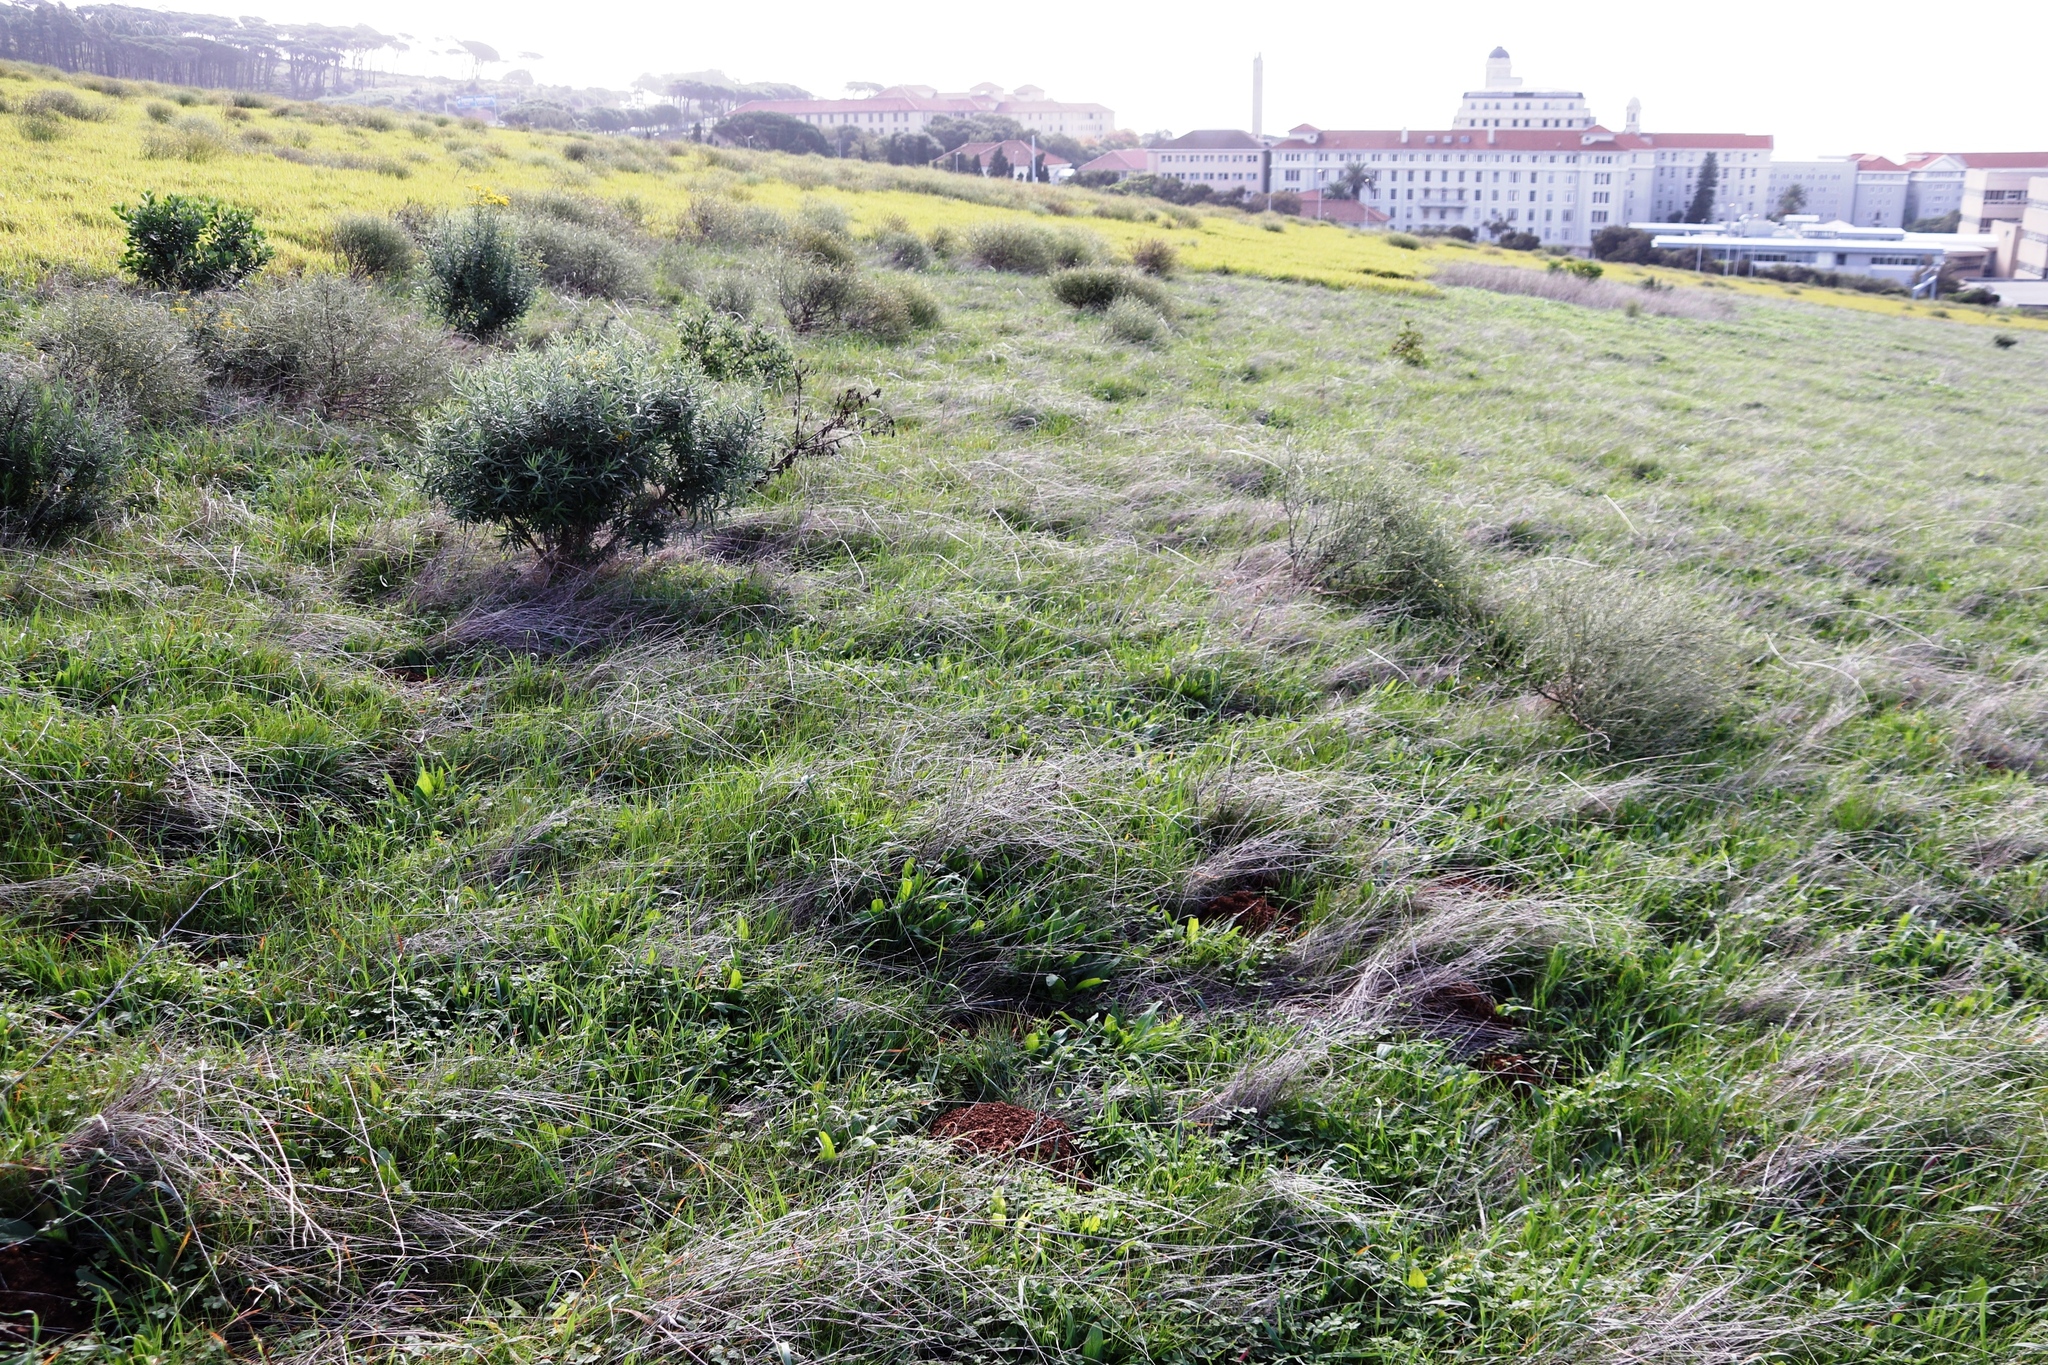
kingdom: Plantae
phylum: Tracheophyta
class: Magnoliopsida
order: Lamiales
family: Plantaginaceae
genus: Plantago
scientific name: Plantago lanceolata
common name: Ribwort plantain
